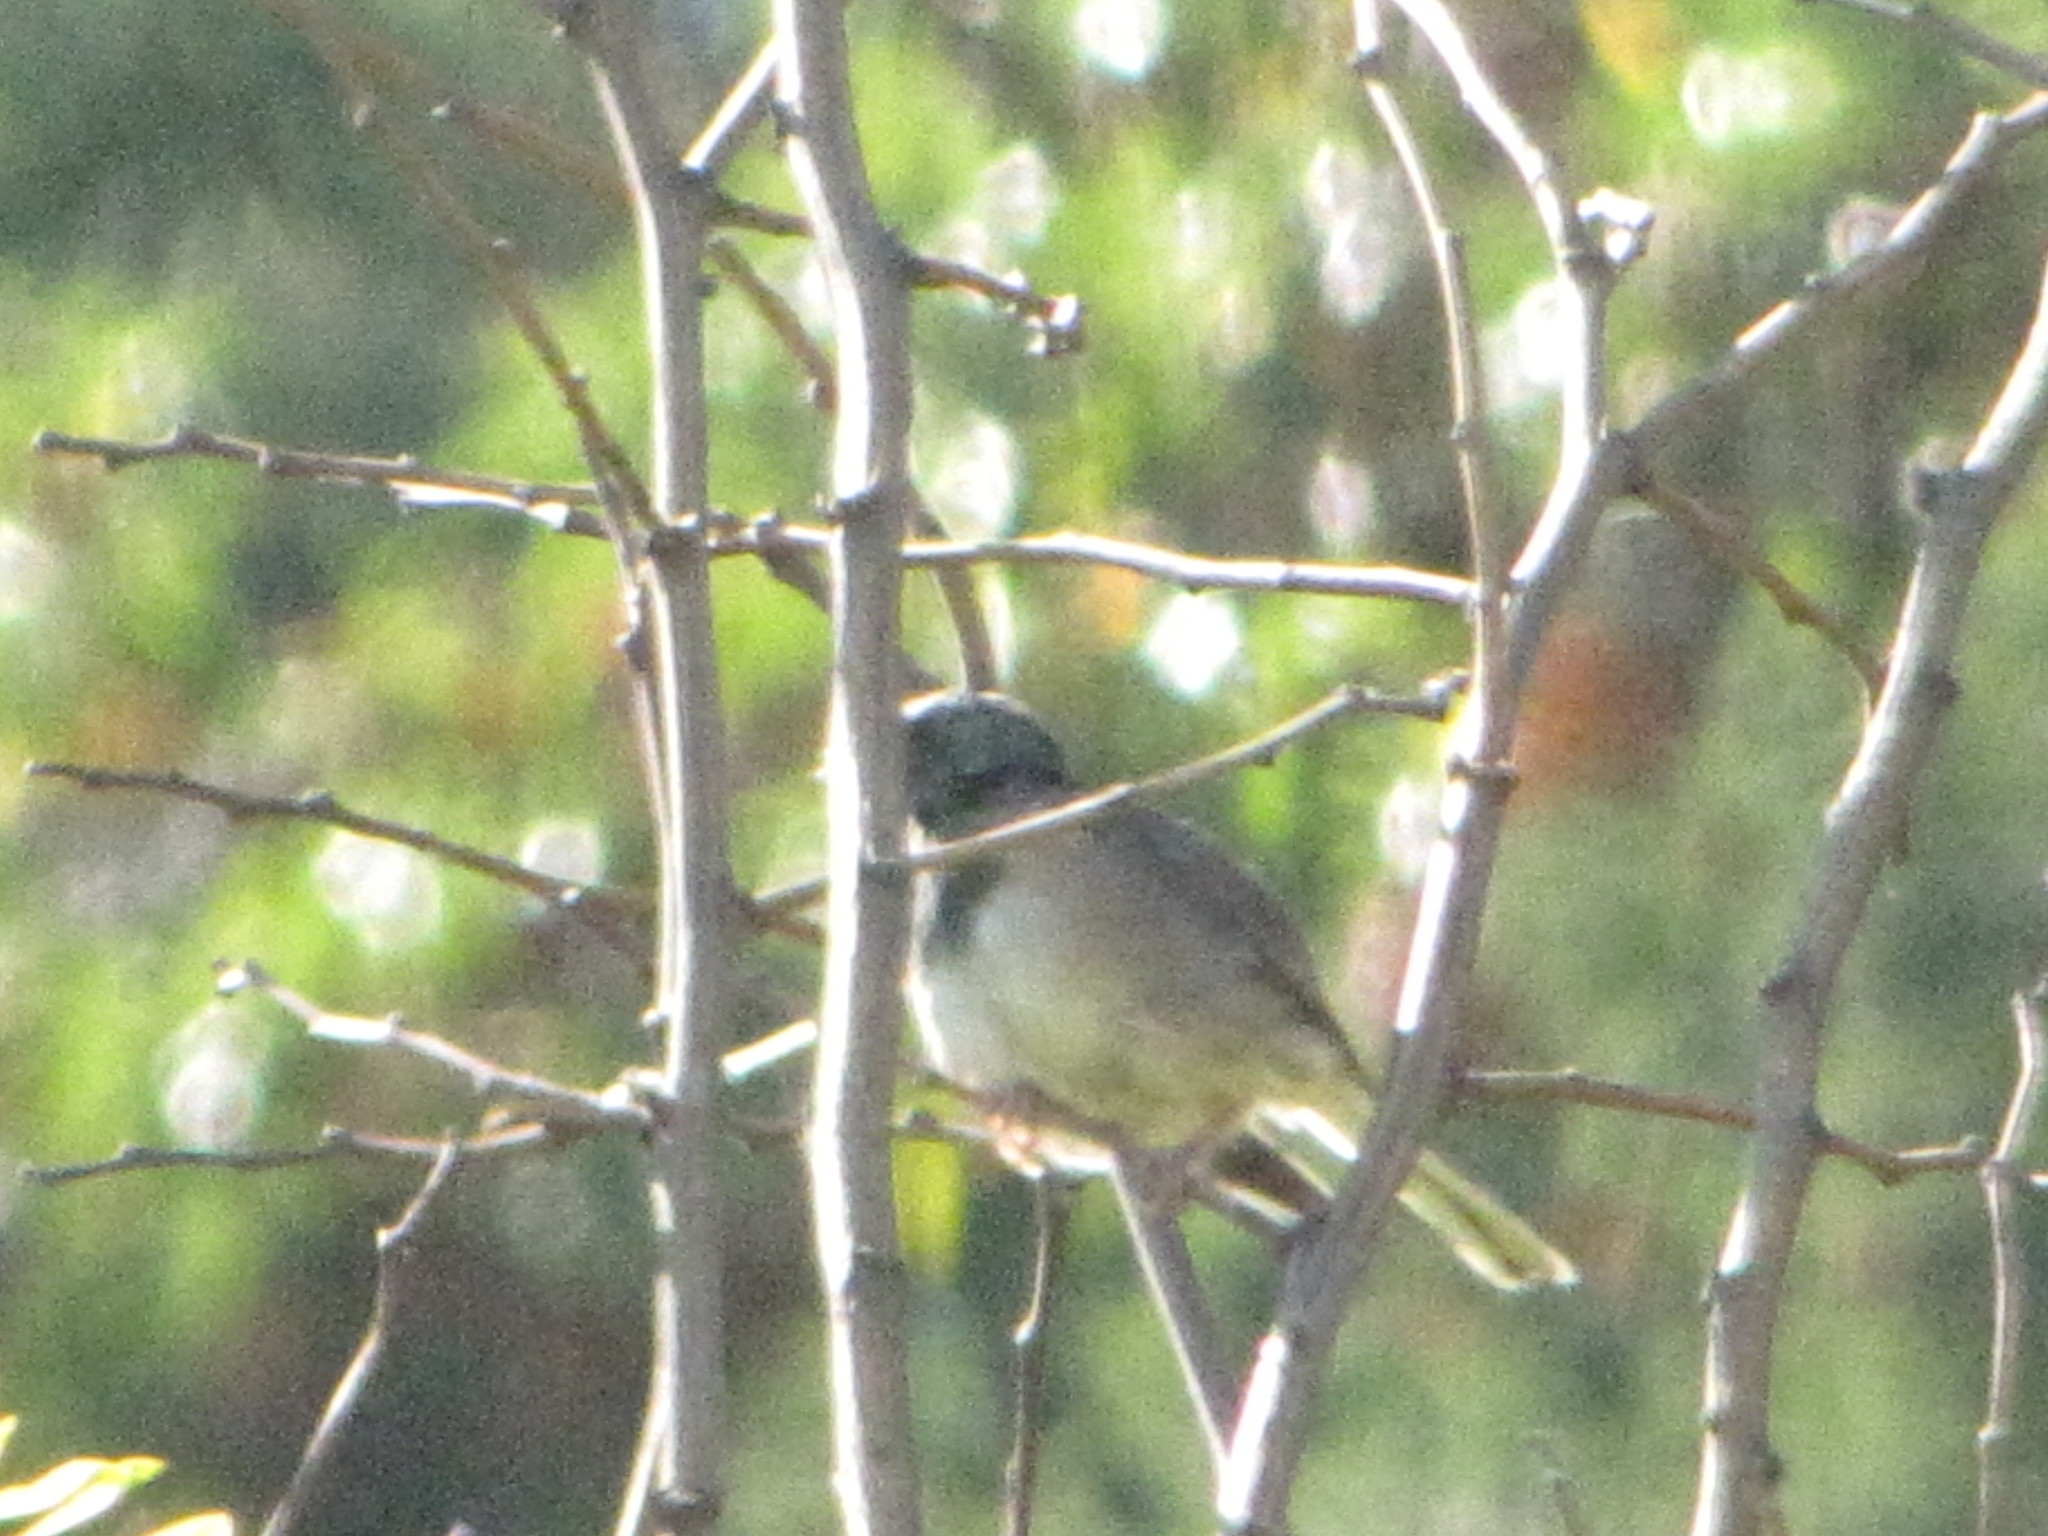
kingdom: Animalia
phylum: Chordata
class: Aves
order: Passeriformes
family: Passerellidae
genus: Junco
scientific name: Junco hyemalis
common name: Dark-eyed junco
